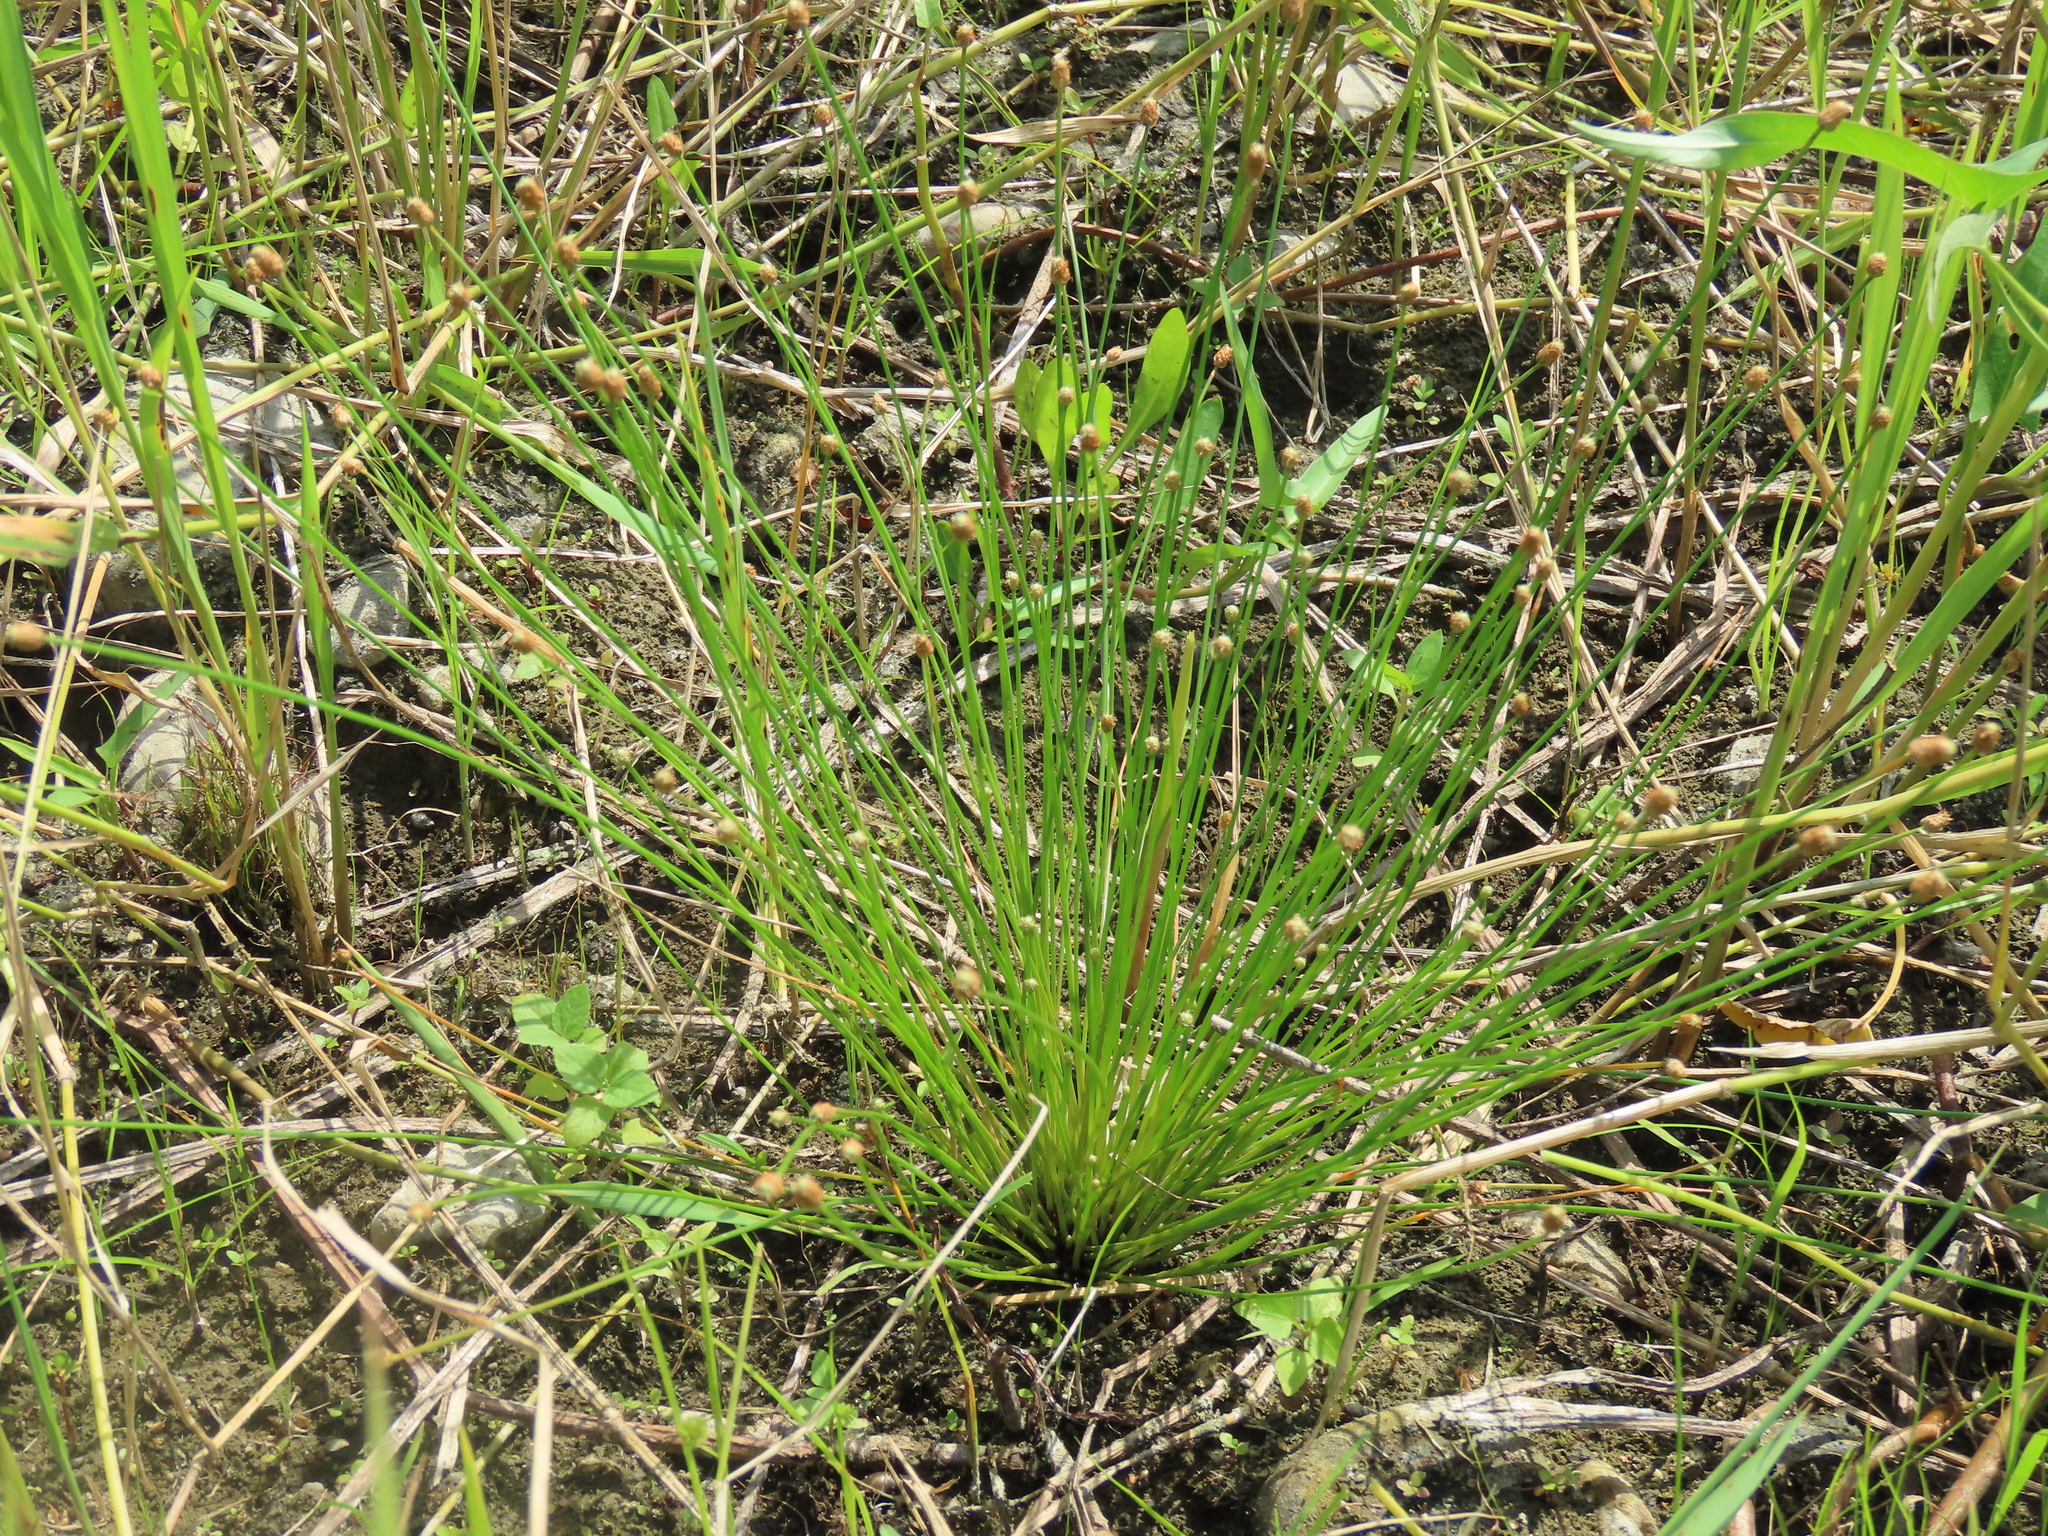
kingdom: Plantae
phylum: Tracheophyta
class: Liliopsida
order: Poales
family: Cyperaceae
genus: Eleocharis
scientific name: Eleocharis geniculata
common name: Canada spikesedge
